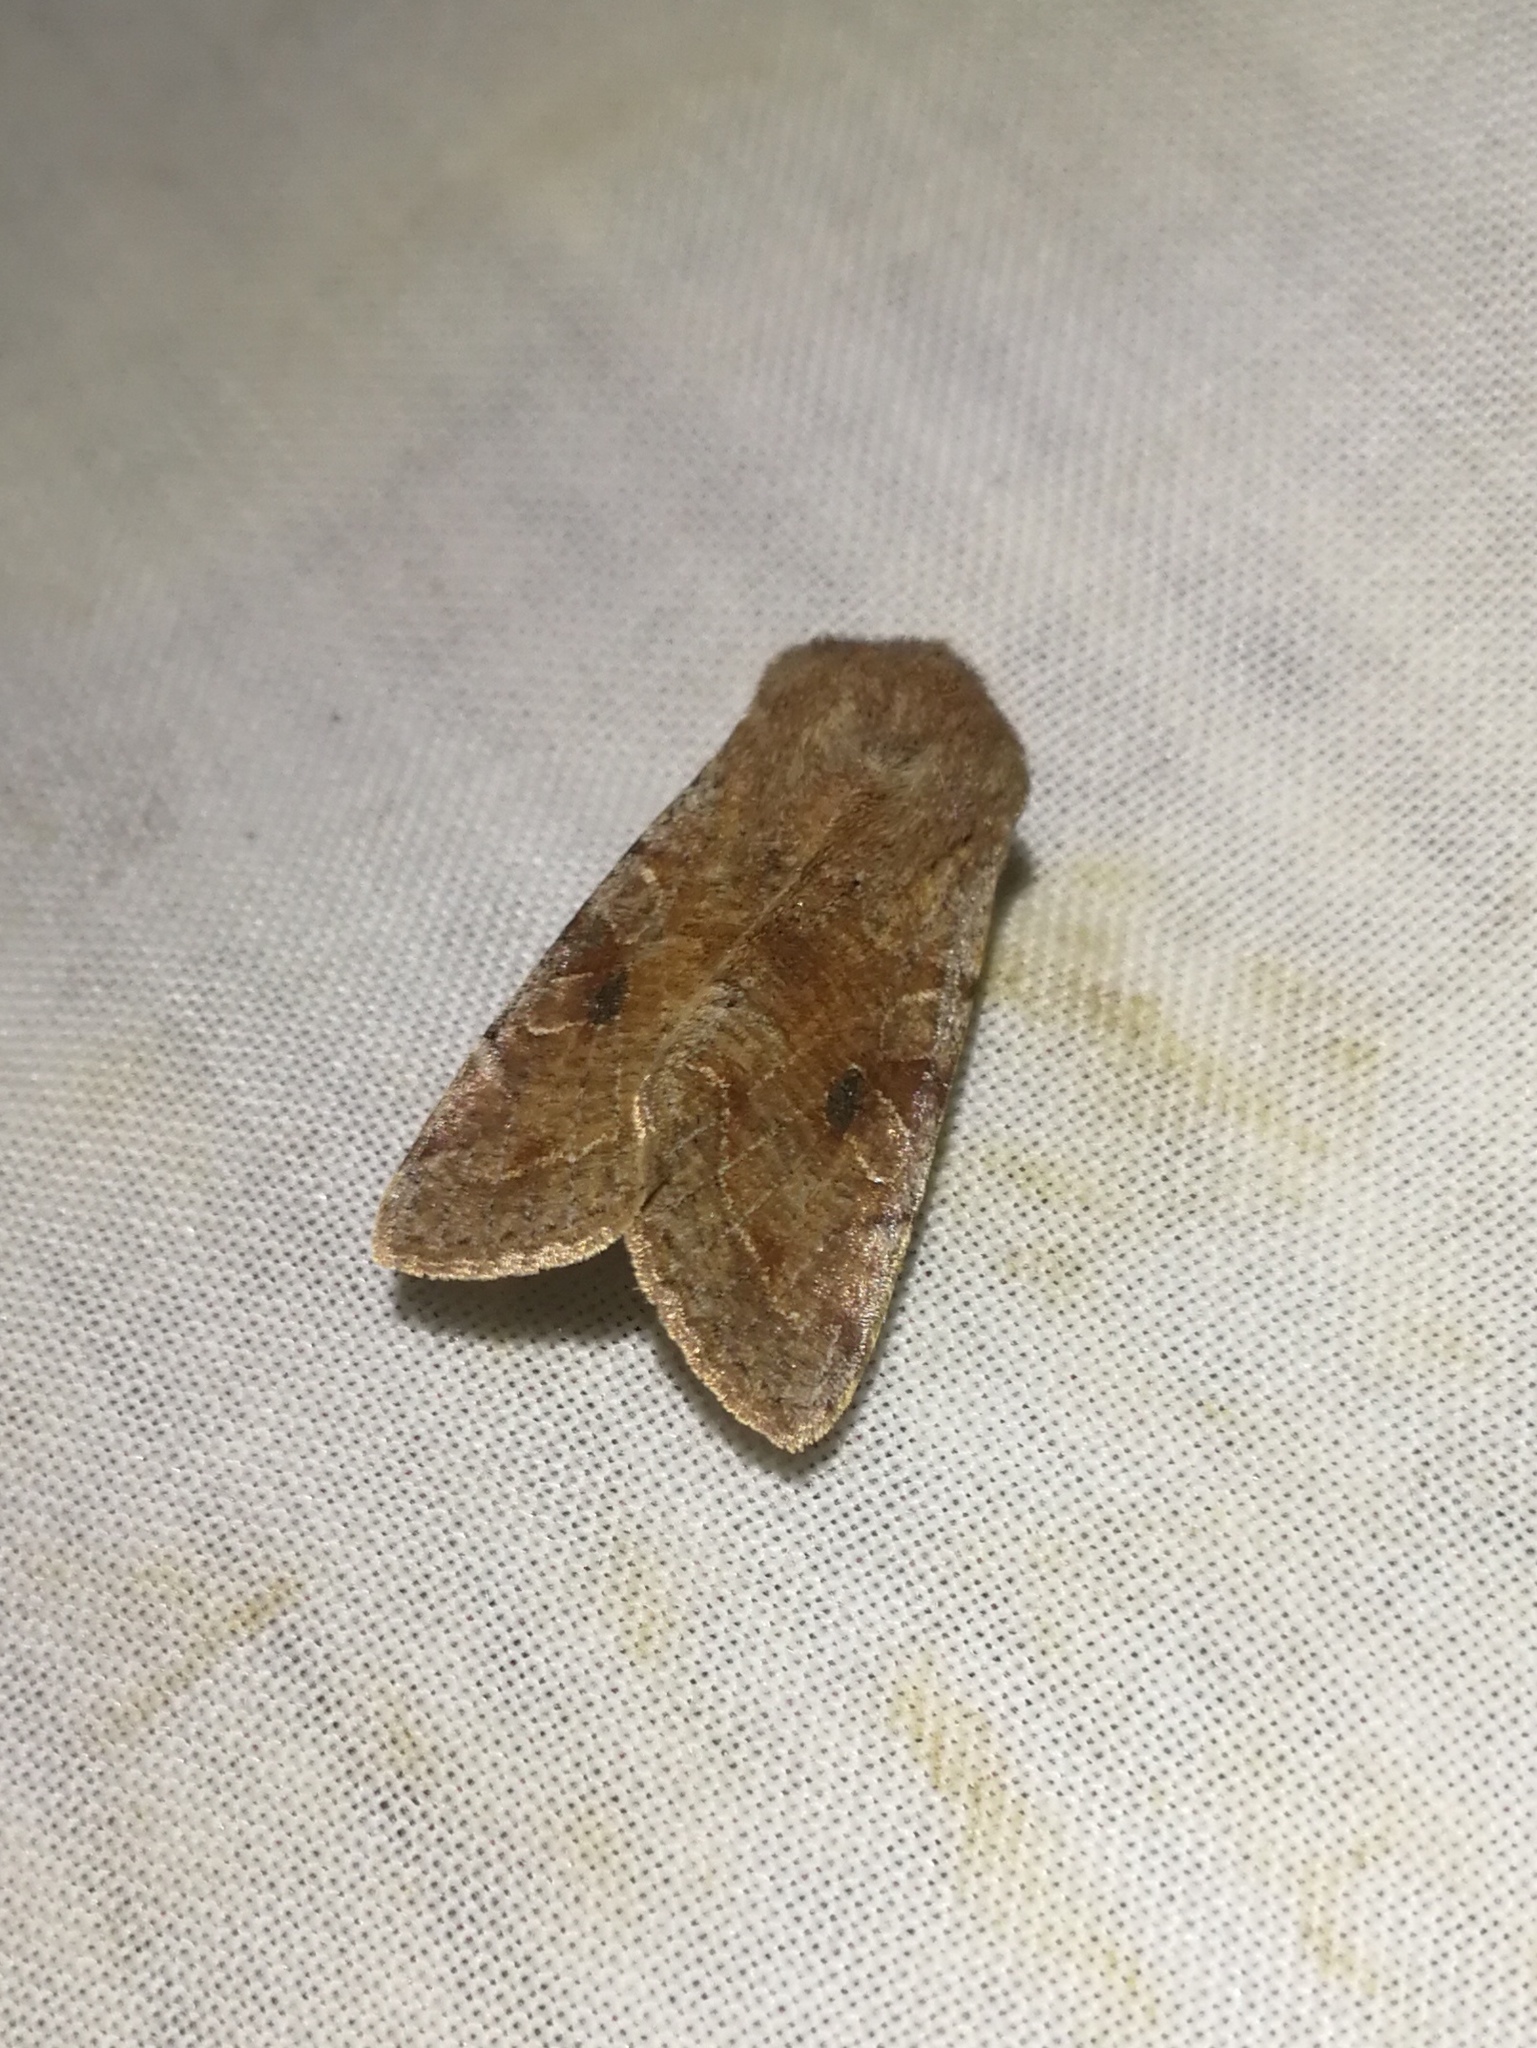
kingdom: Animalia
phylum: Arthropoda
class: Insecta
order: Lepidoptera
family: Noctuidae
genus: Orthosia
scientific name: Orthosia incerta
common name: Clouded drab
